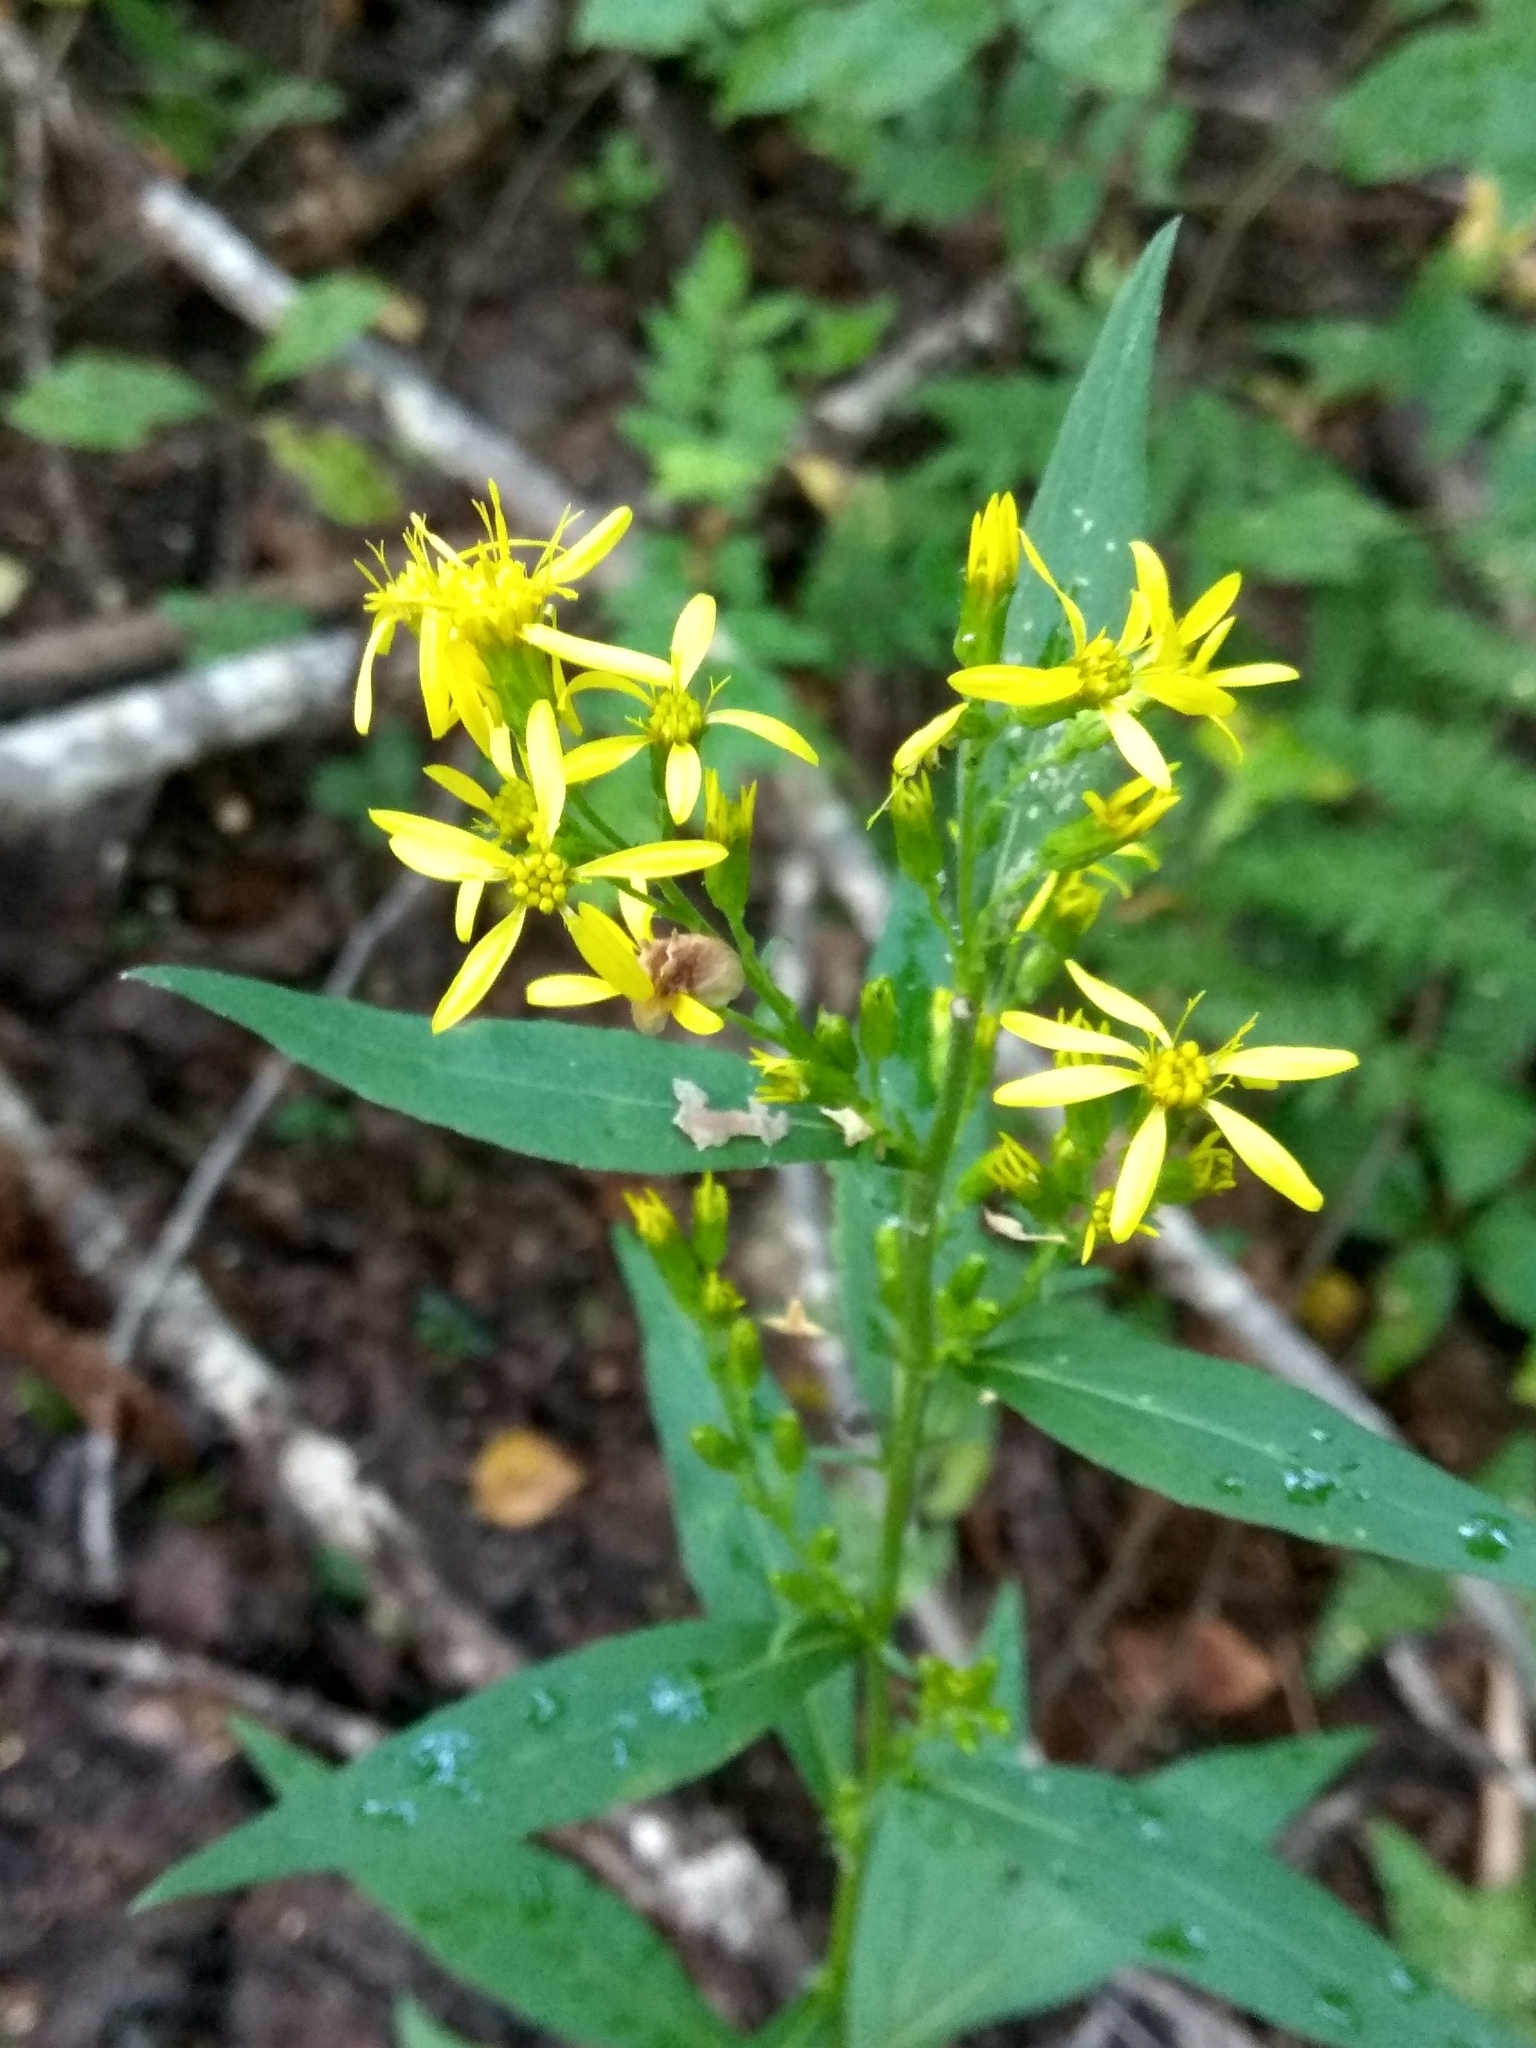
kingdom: Plantae
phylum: Tracheophyta
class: Magnoliopsida
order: Asterales
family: Asteraceae
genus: Solidago
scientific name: Solidago virgaurea
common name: Goldenrod
